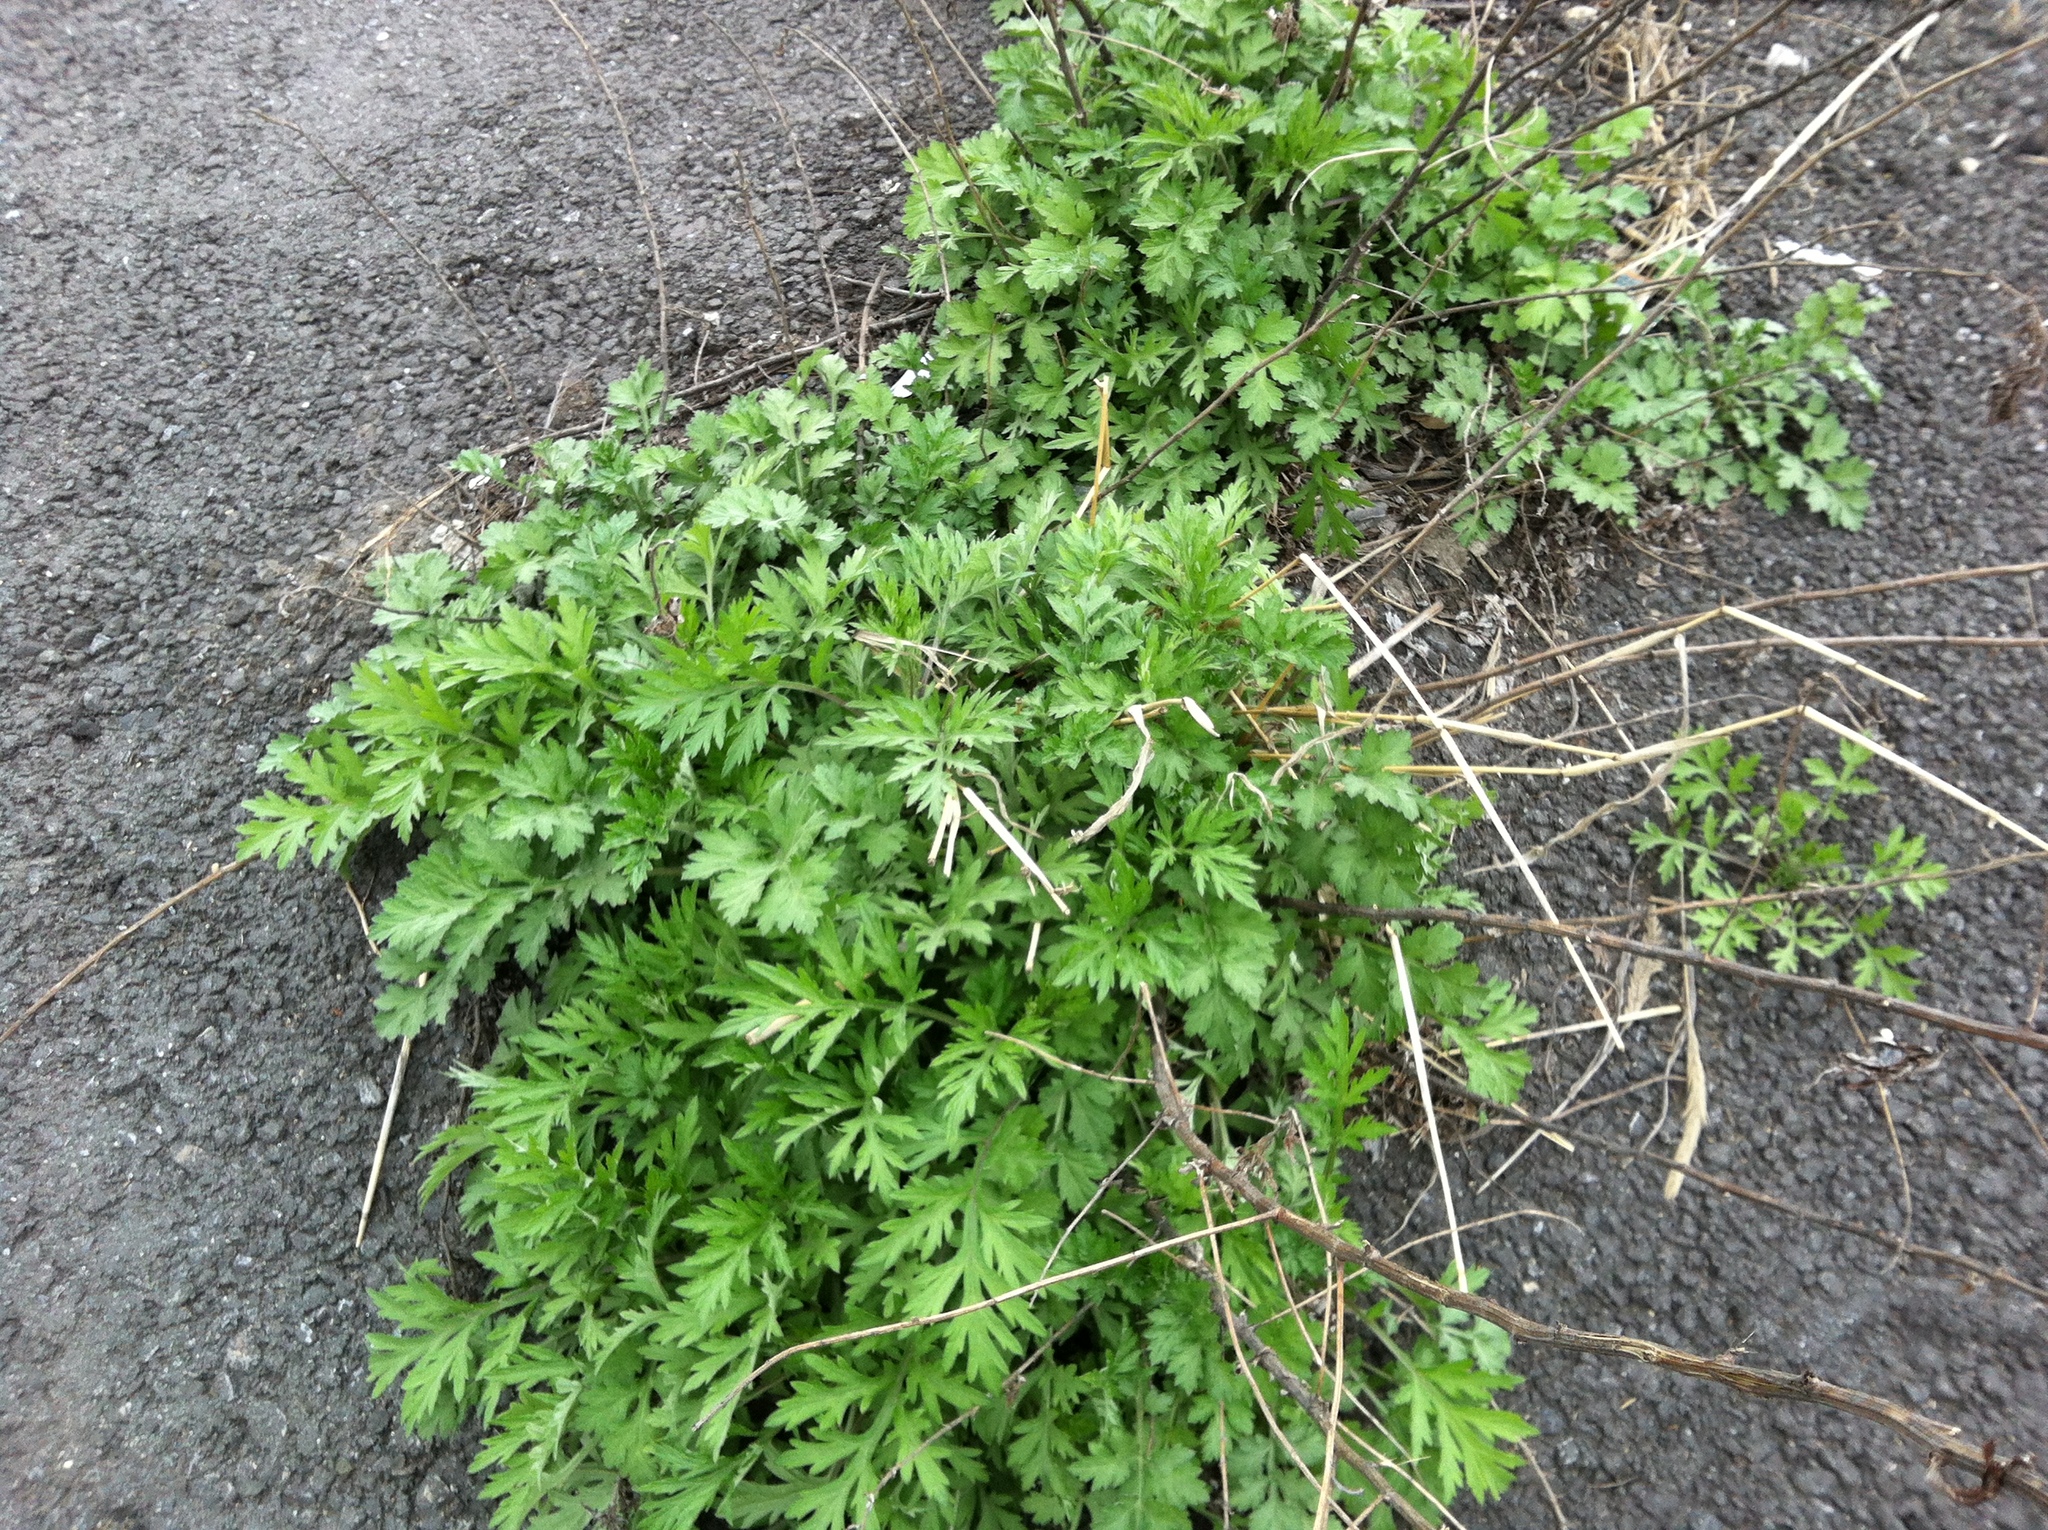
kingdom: Plantae
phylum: Tracheophyta
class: Magnoliopsida
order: Asterales
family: Asteraceae
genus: Artemisia
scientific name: Artemisia vulgaris
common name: Mugwort
